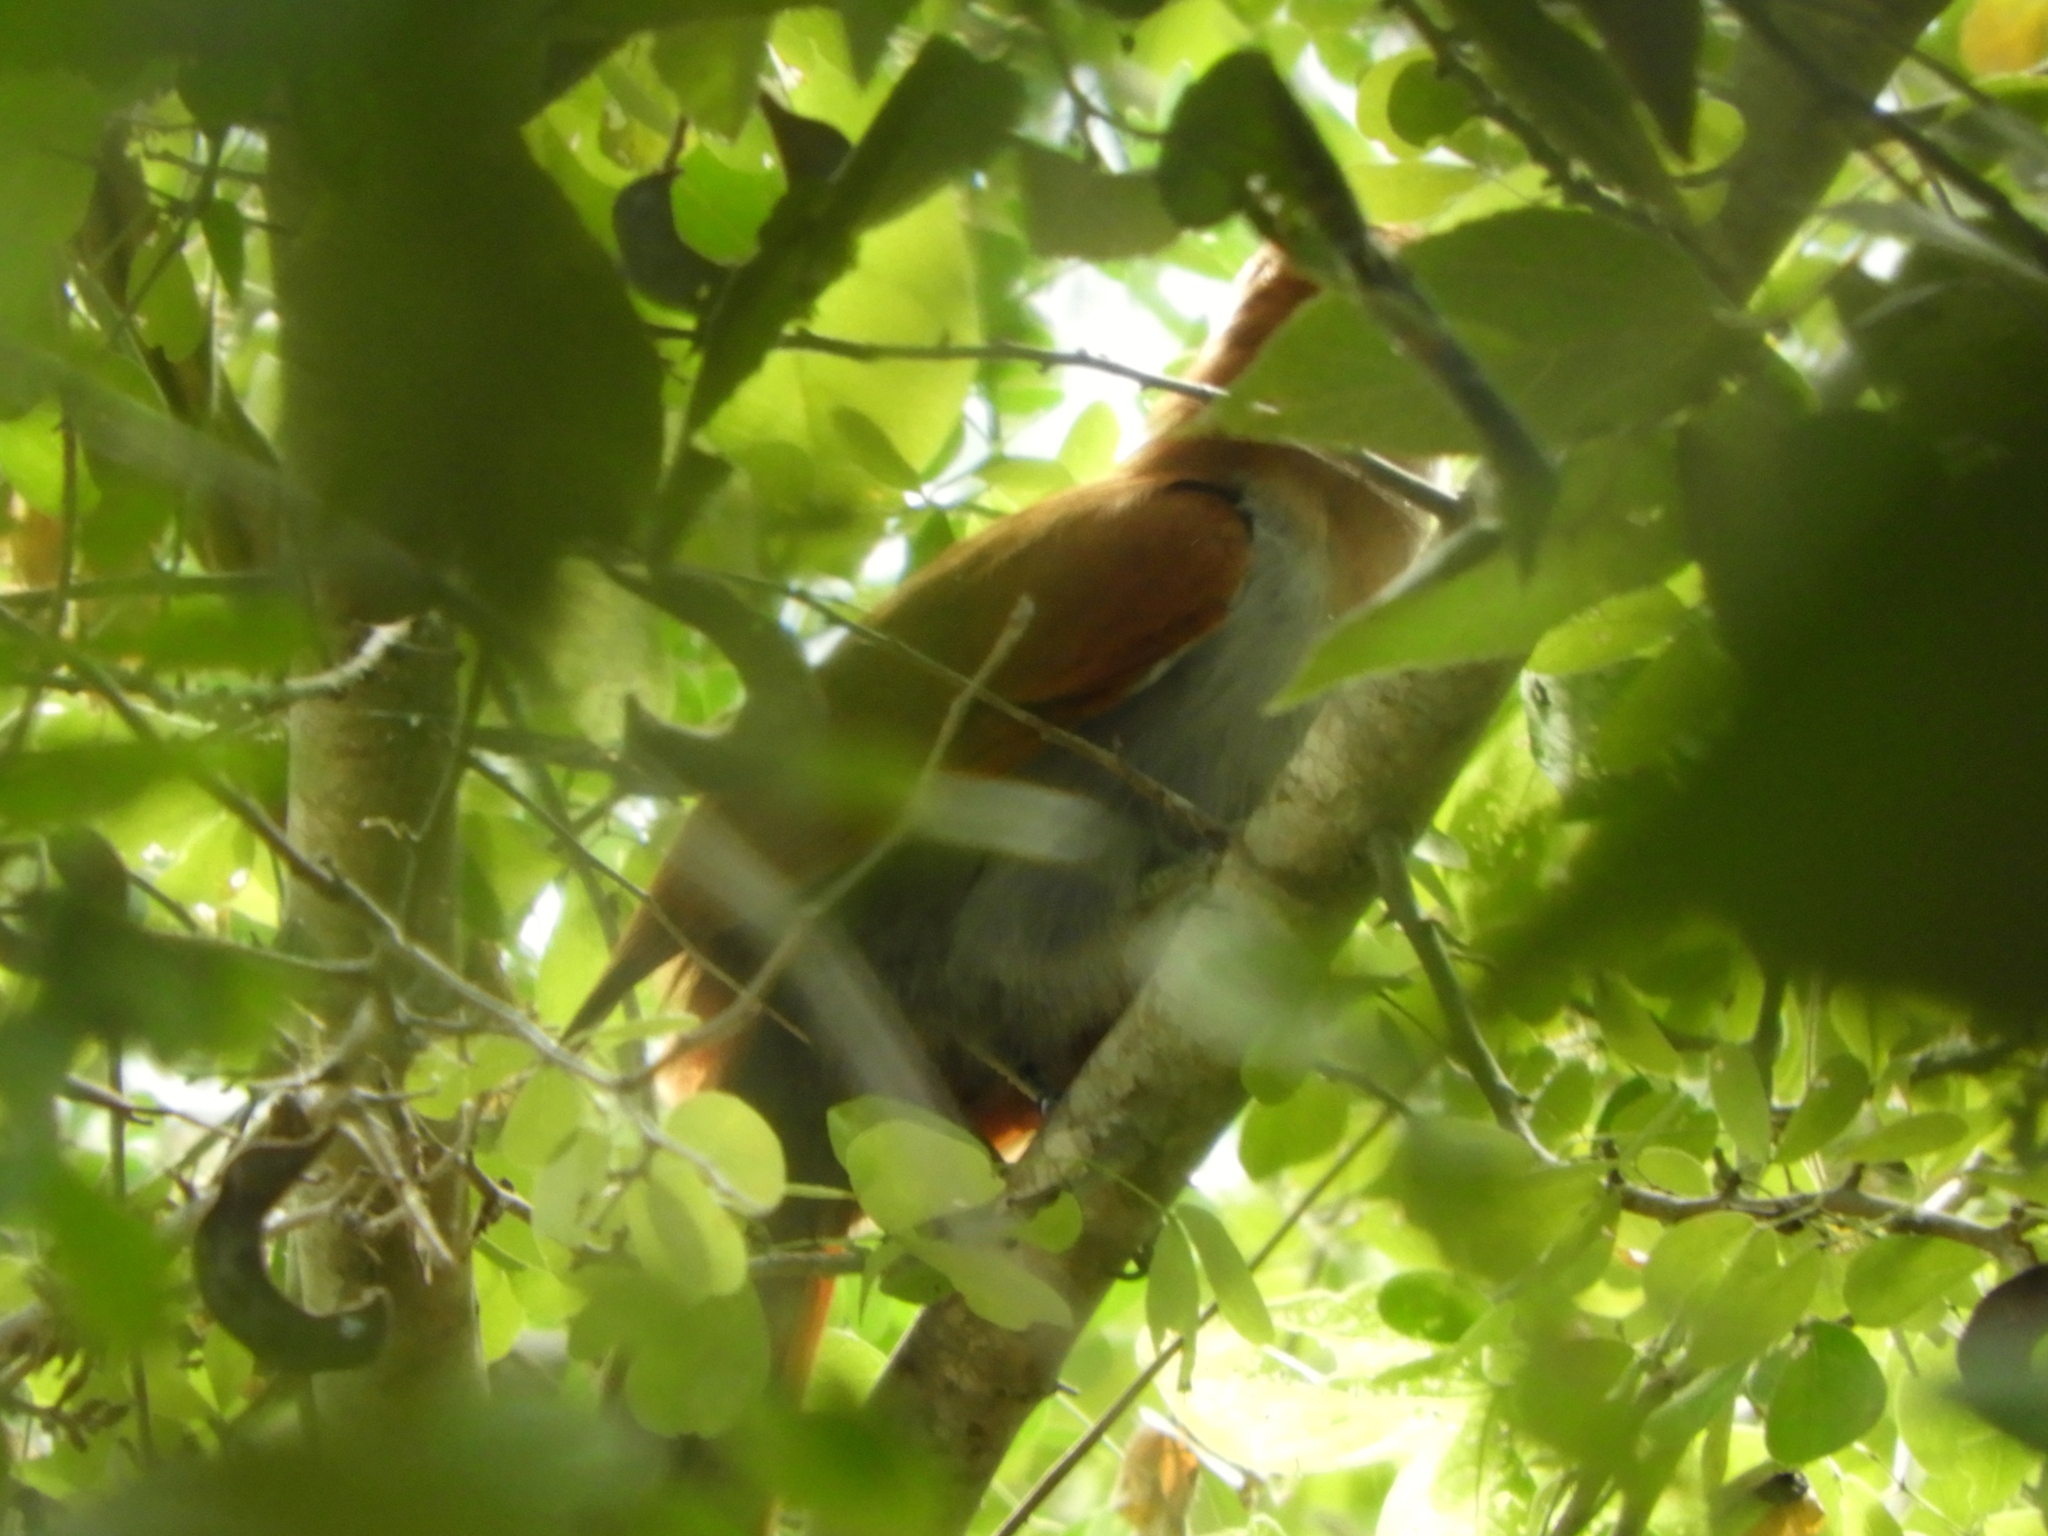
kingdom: Animalia
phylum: Chordata
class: Aves
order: Cuculiformes
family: Cuculidae
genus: Piaya
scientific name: Piaya cayana
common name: Squirrel cuckoo
